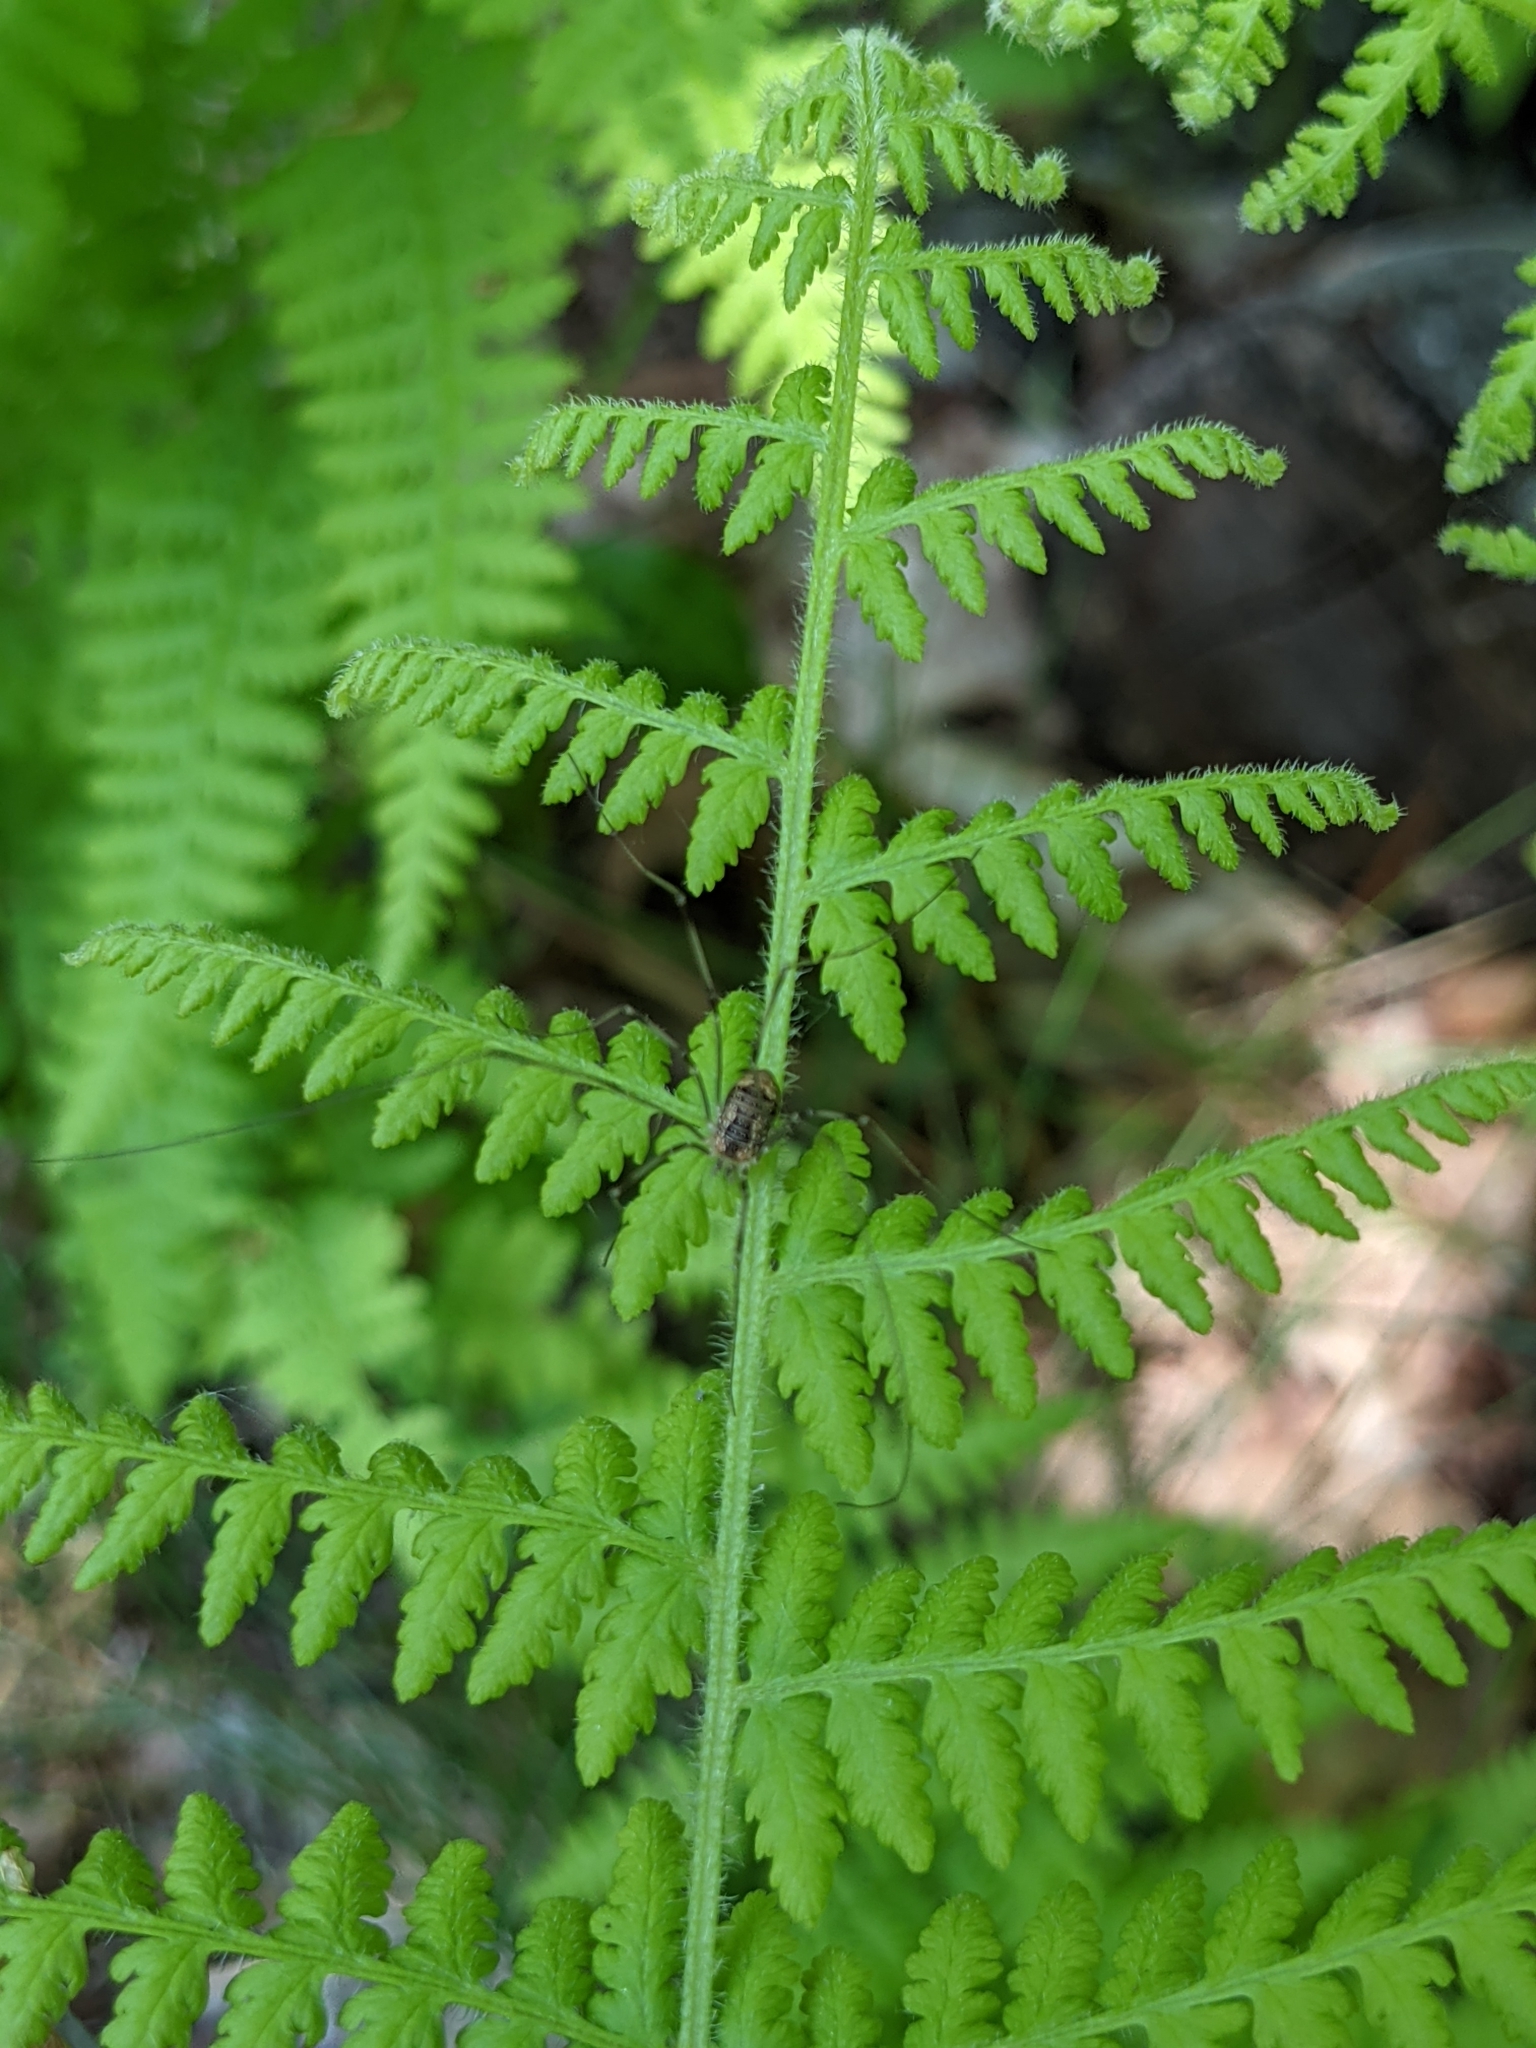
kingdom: Plantae
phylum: Tracheophyta
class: Polypodiopsida
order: Polypodiales
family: Dennstaedtiaceae
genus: Sitobolium
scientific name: Sitobolium punctilobum
